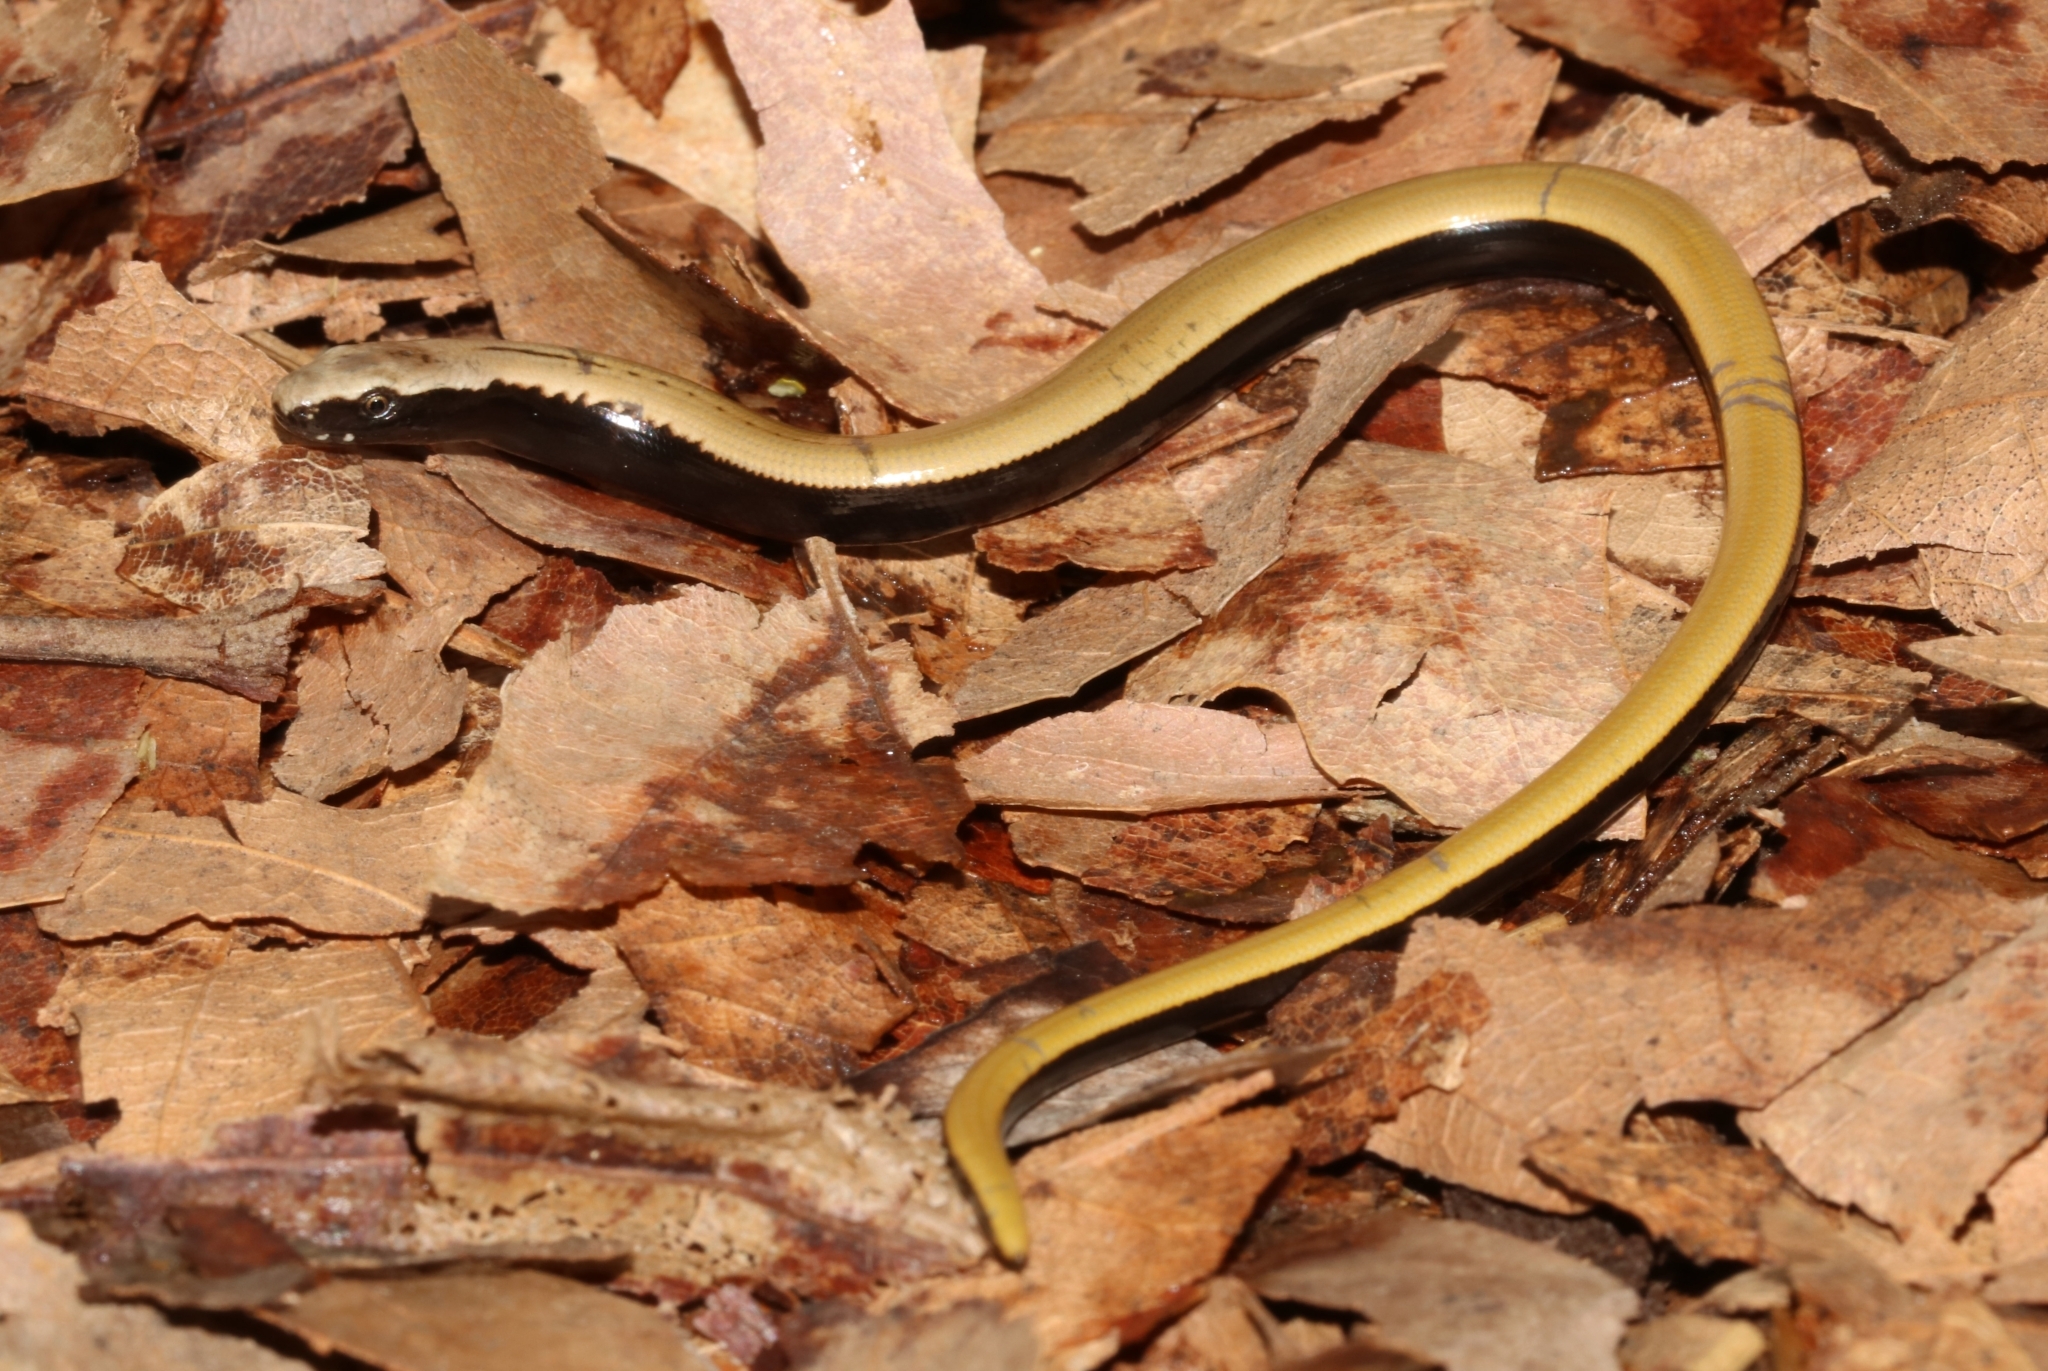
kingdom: Animalia
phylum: Chordata
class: Squamata
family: Anguidae
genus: Anguis
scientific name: Anguis cephallonica
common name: Peloponnese slow worm
